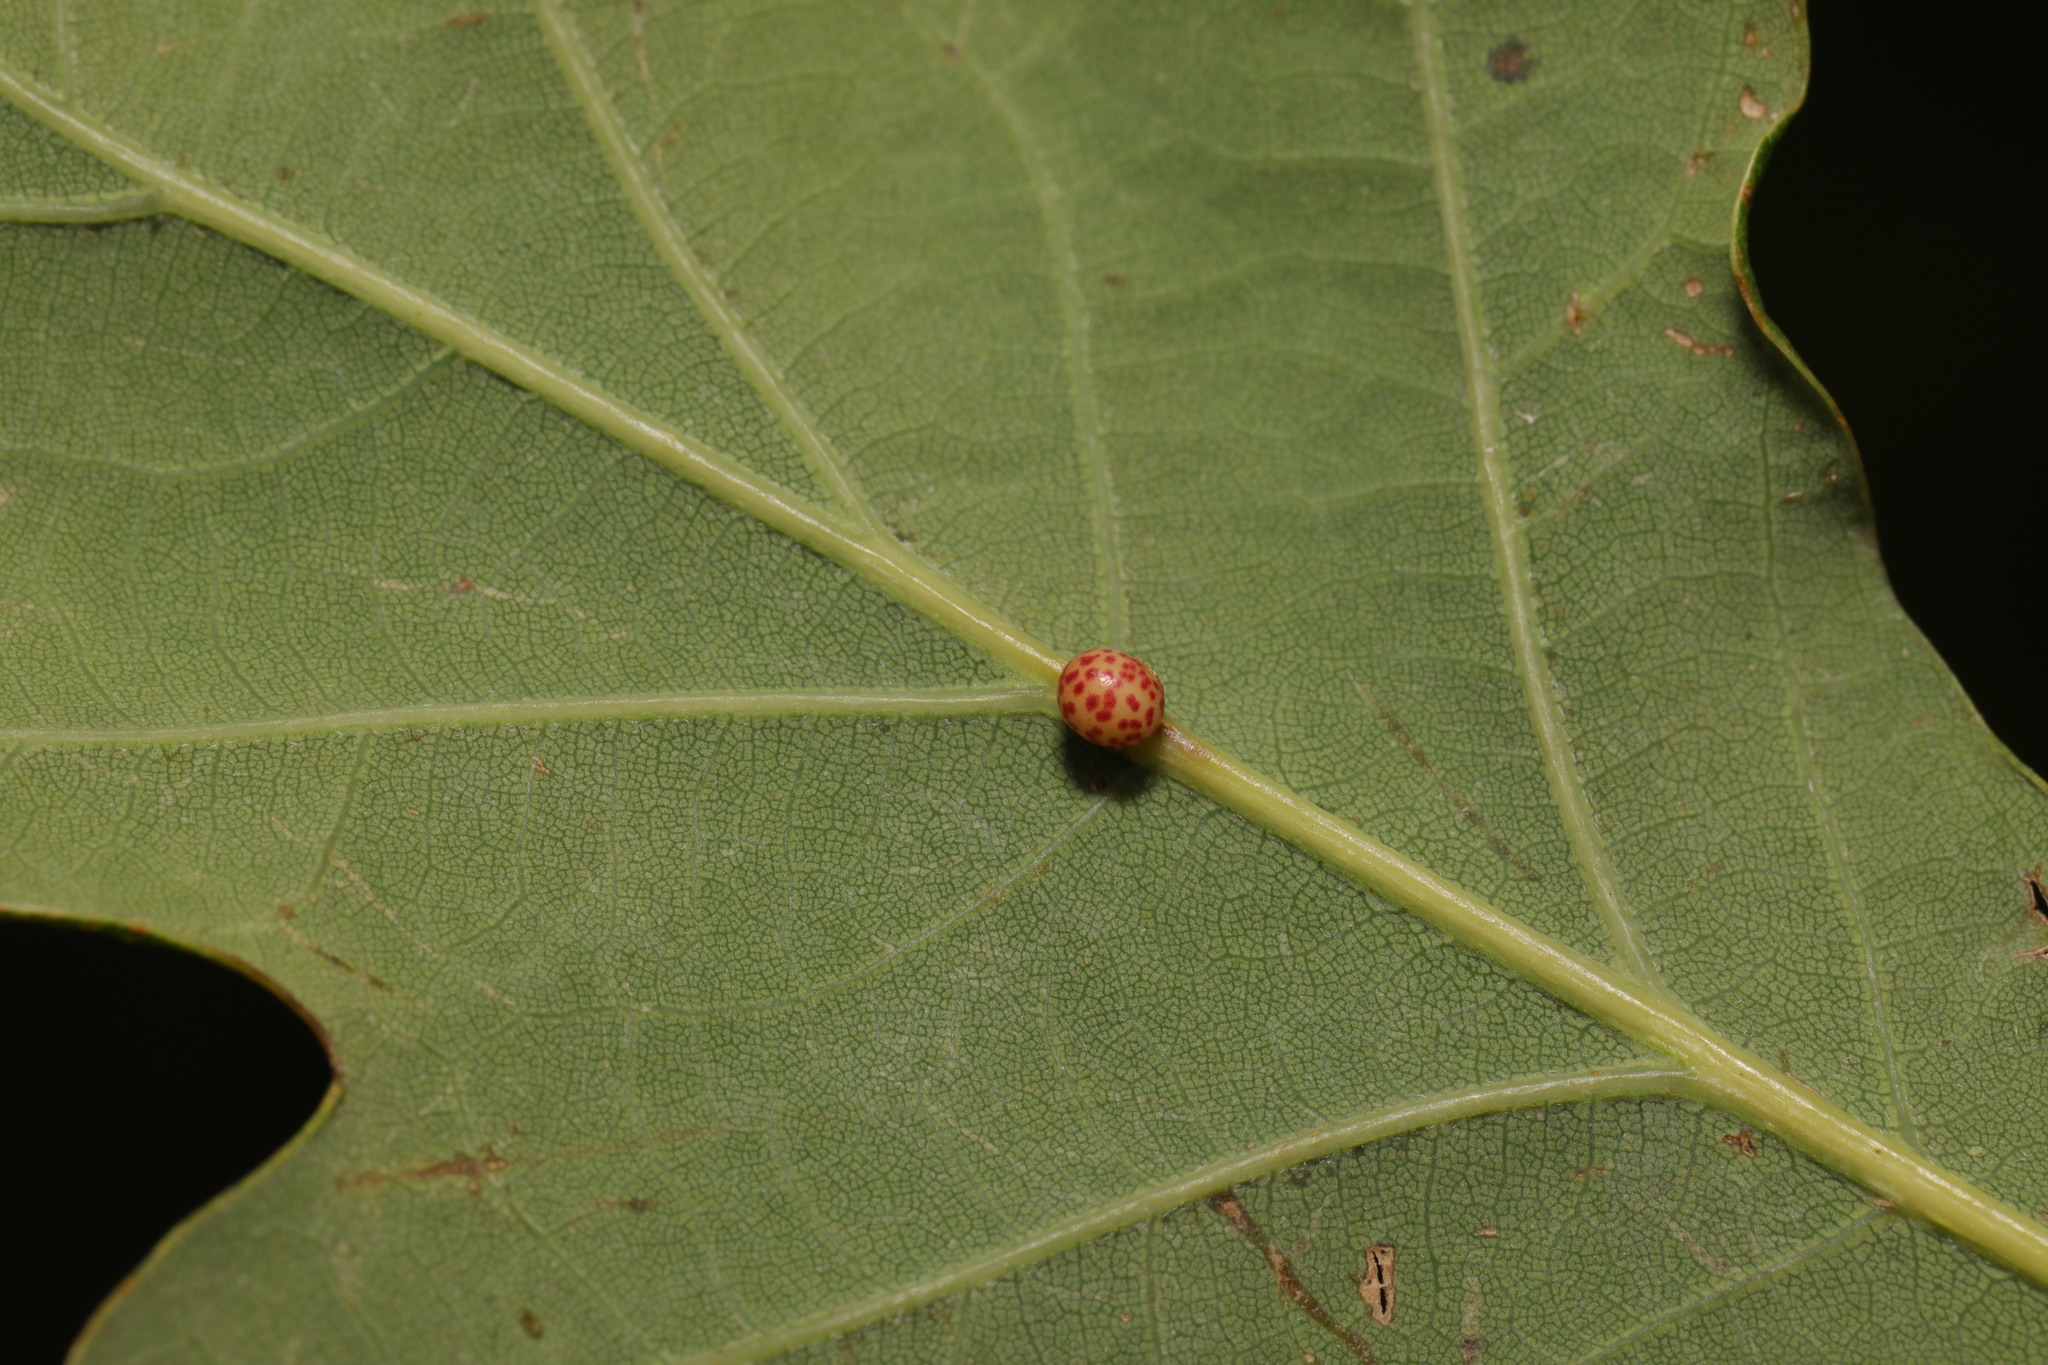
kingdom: Animalia
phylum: Arthropoda
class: Insecta
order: Hymenoptera
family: Cynipidae
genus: Neuroterus
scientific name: Neuroterus anthracinus
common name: Oyster gall
